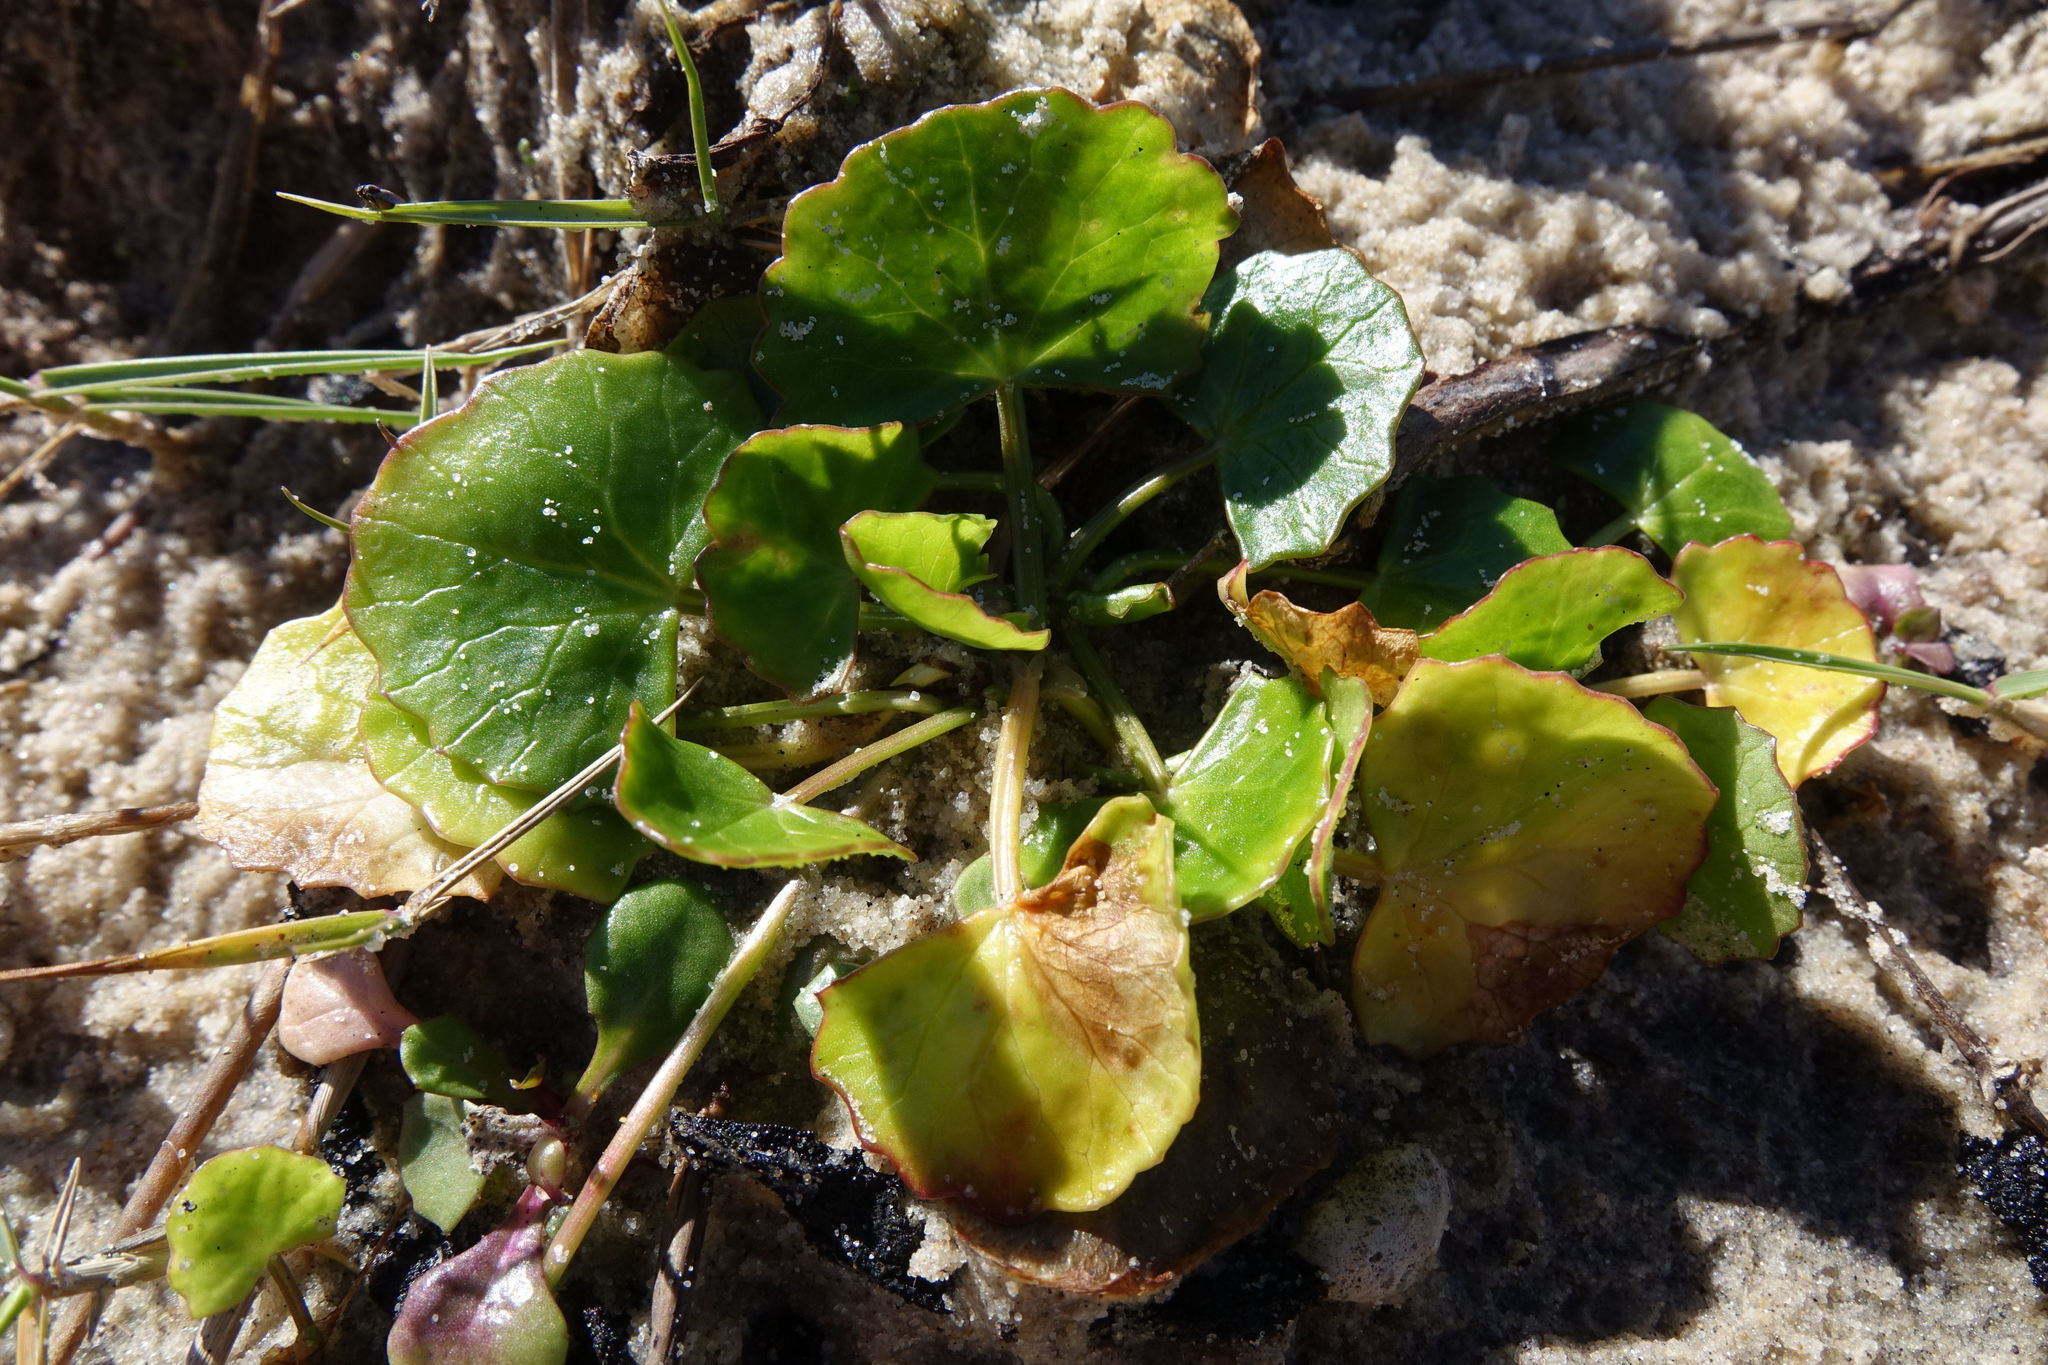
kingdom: Plantae
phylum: Tracheophyta
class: Magnoliopsida
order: Apiales
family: Apiaceae
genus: Centella
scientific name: Centella asiatica
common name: Spadeleaf
